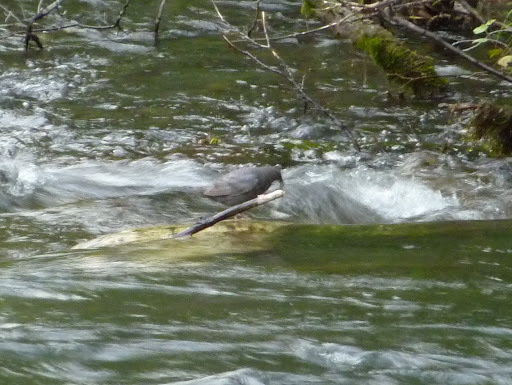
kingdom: Animalia
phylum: Chordata
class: Aves
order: Passeriformes
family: Cinclidae
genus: Cinclus
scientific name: Cinclus mexicanus
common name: American dipper
